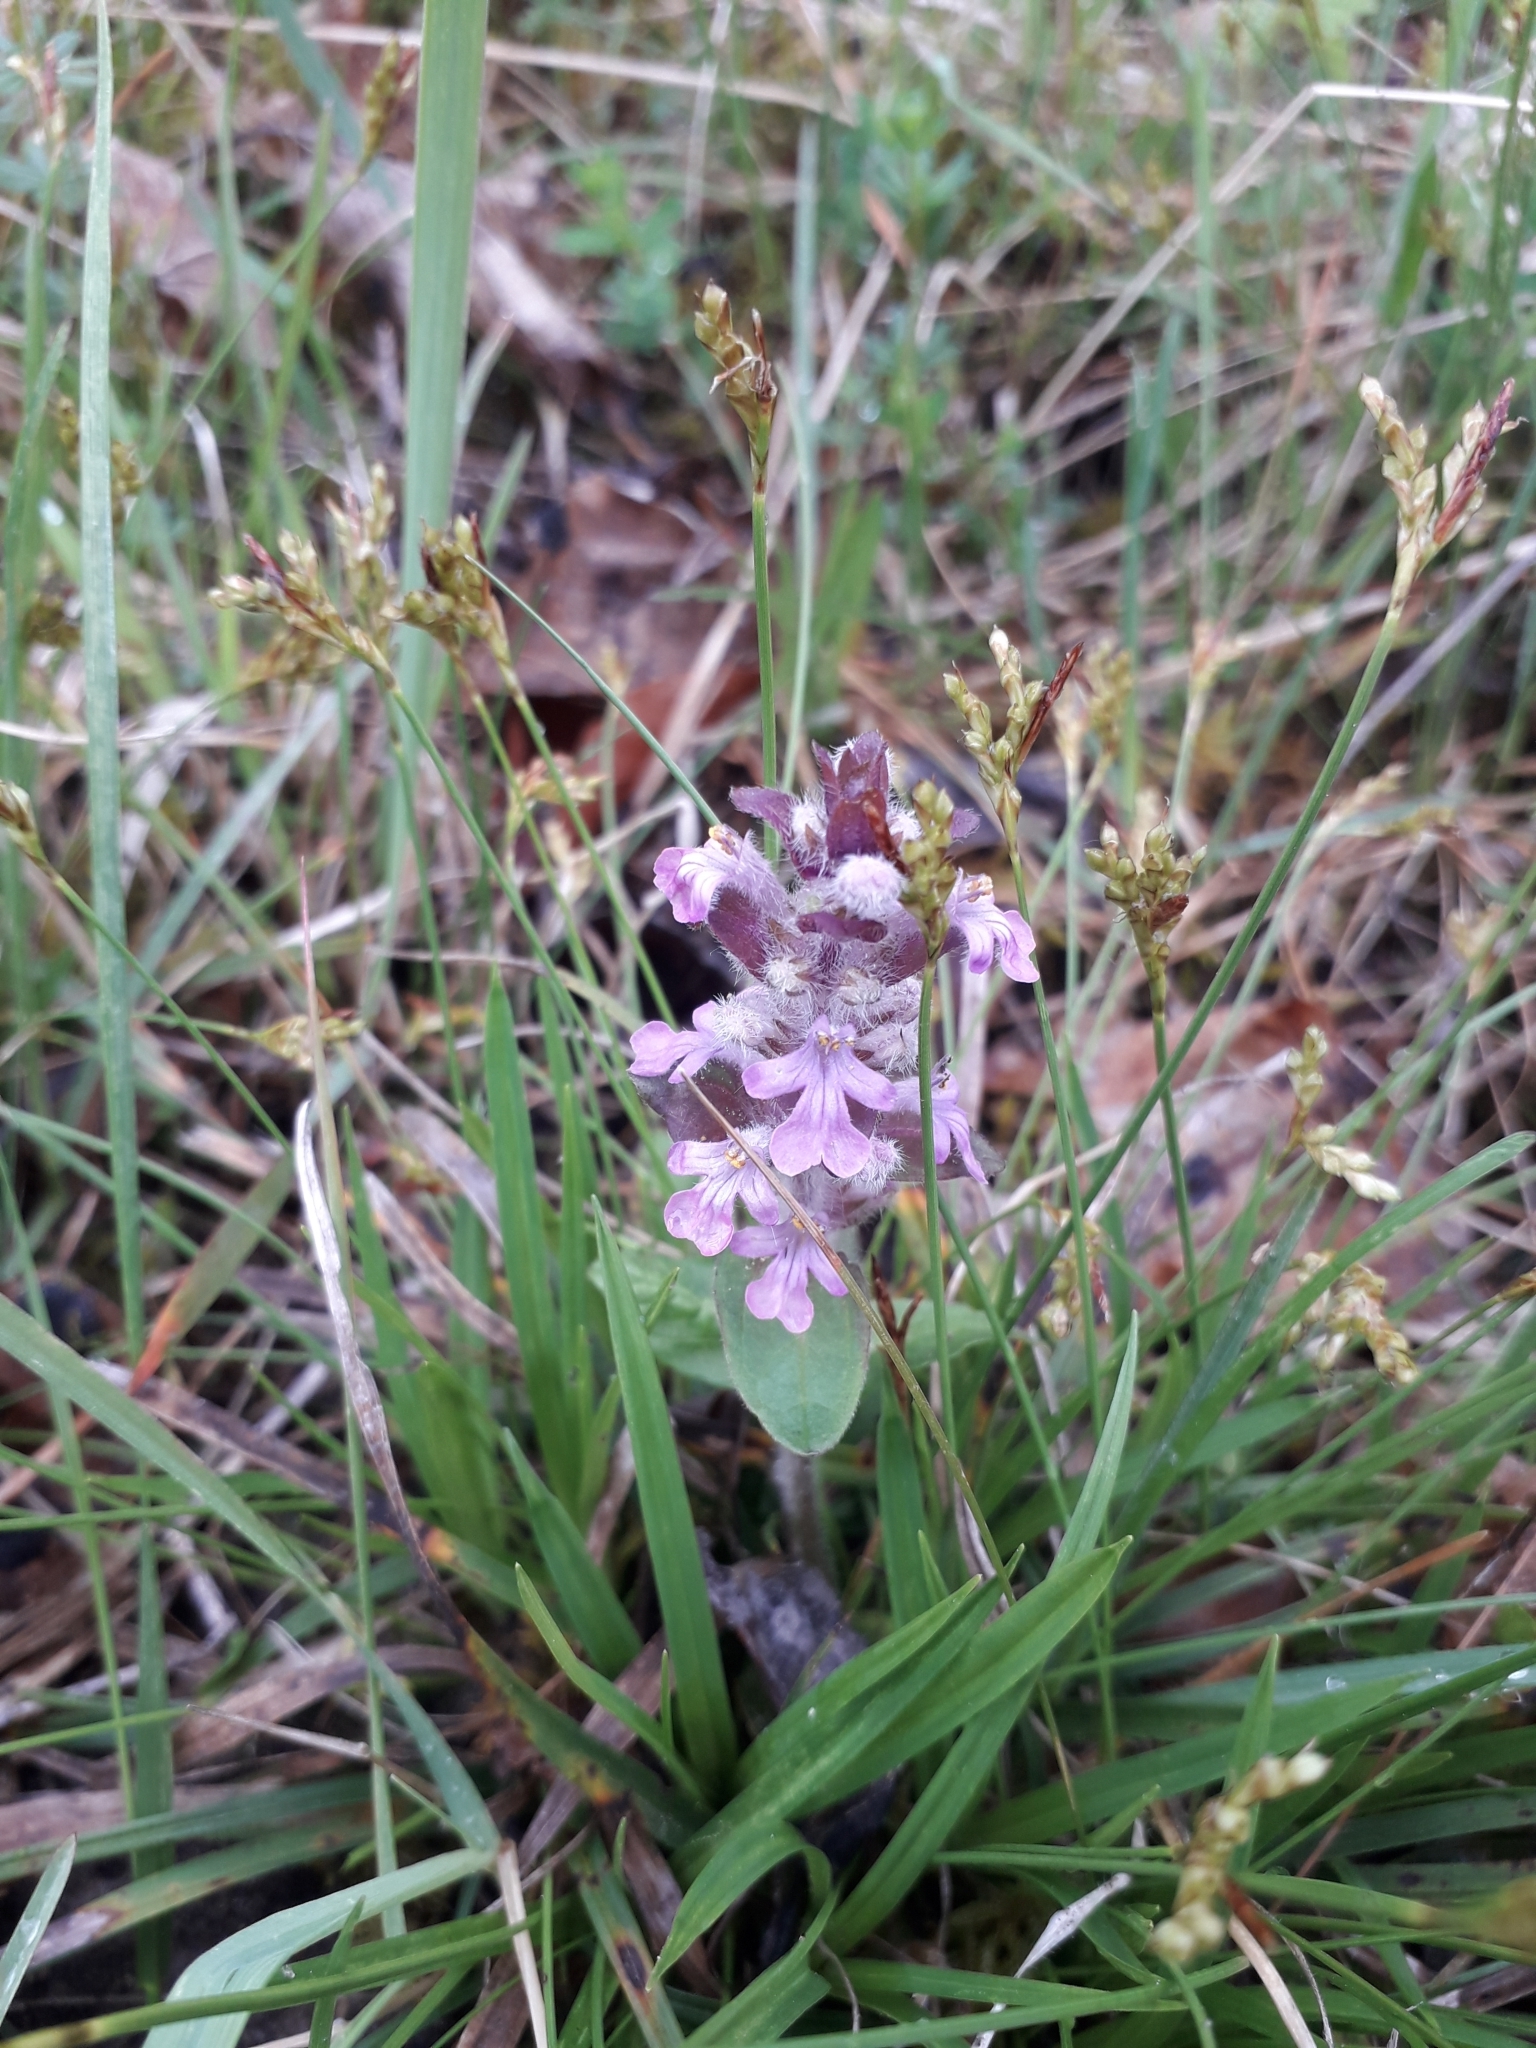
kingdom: Plantae
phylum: Tracheophyta
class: Magnoliopsida
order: Lamiales
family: Lamiaceae
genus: Ajuga
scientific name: Ajuga reptans
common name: Bugle
